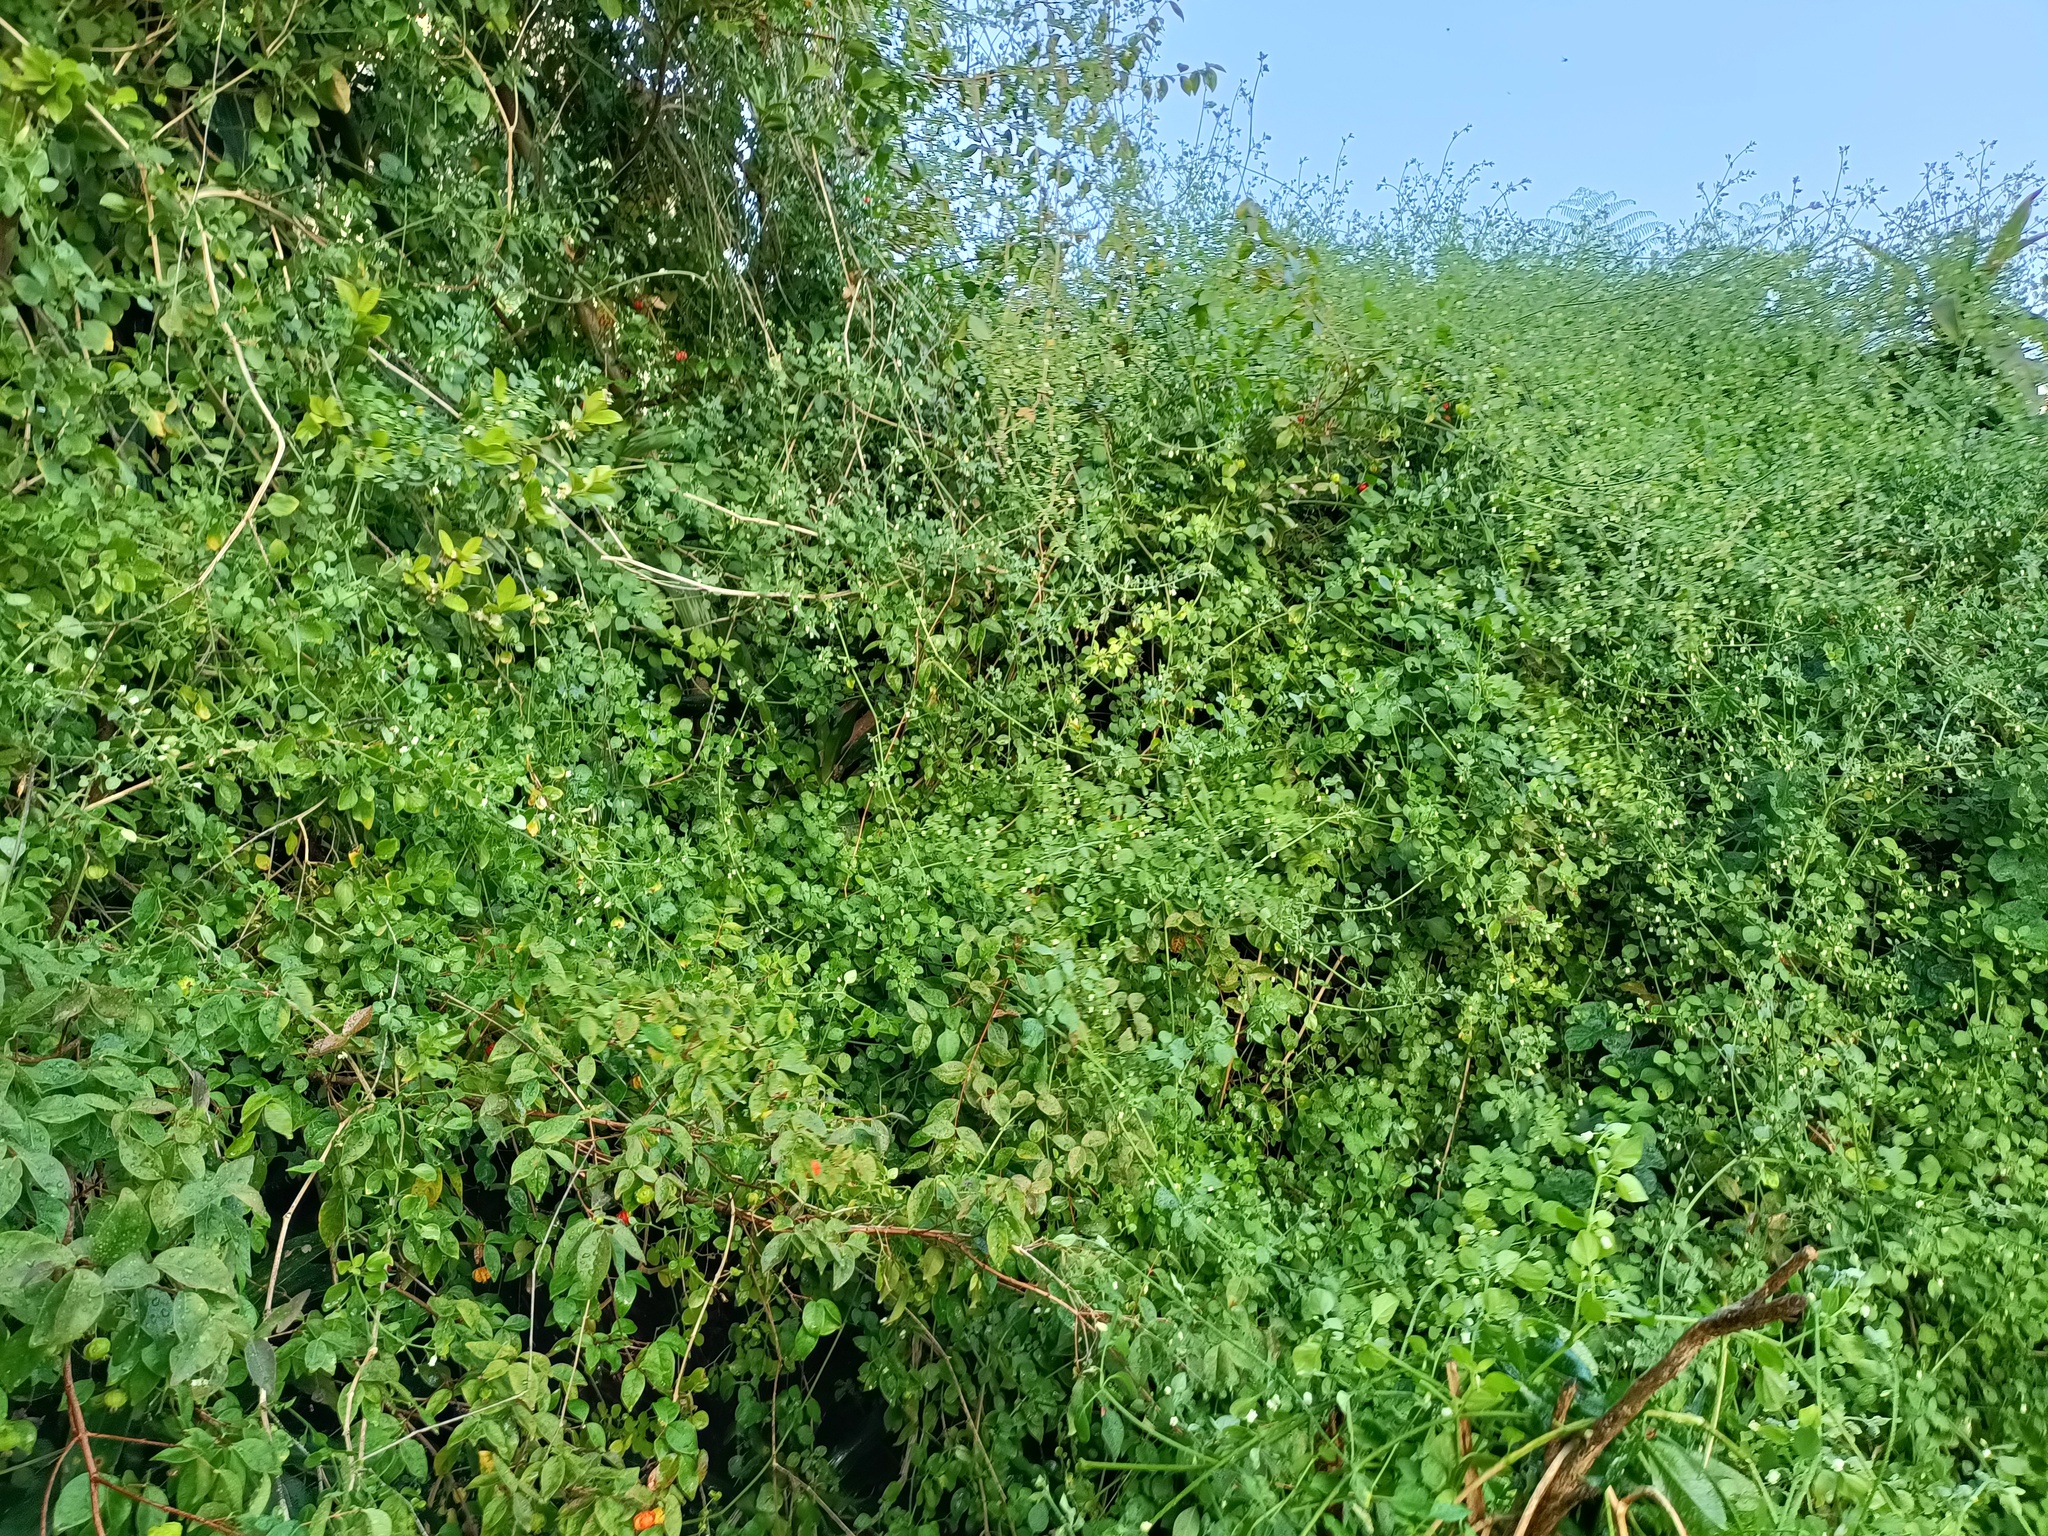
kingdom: Plantae
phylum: Tracheophyta
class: Magnoliopsida
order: Solanales
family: Solanaceae
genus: Salpichroa
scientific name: Salpichroa origanifolia
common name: Lily-of-the-valley-vine
